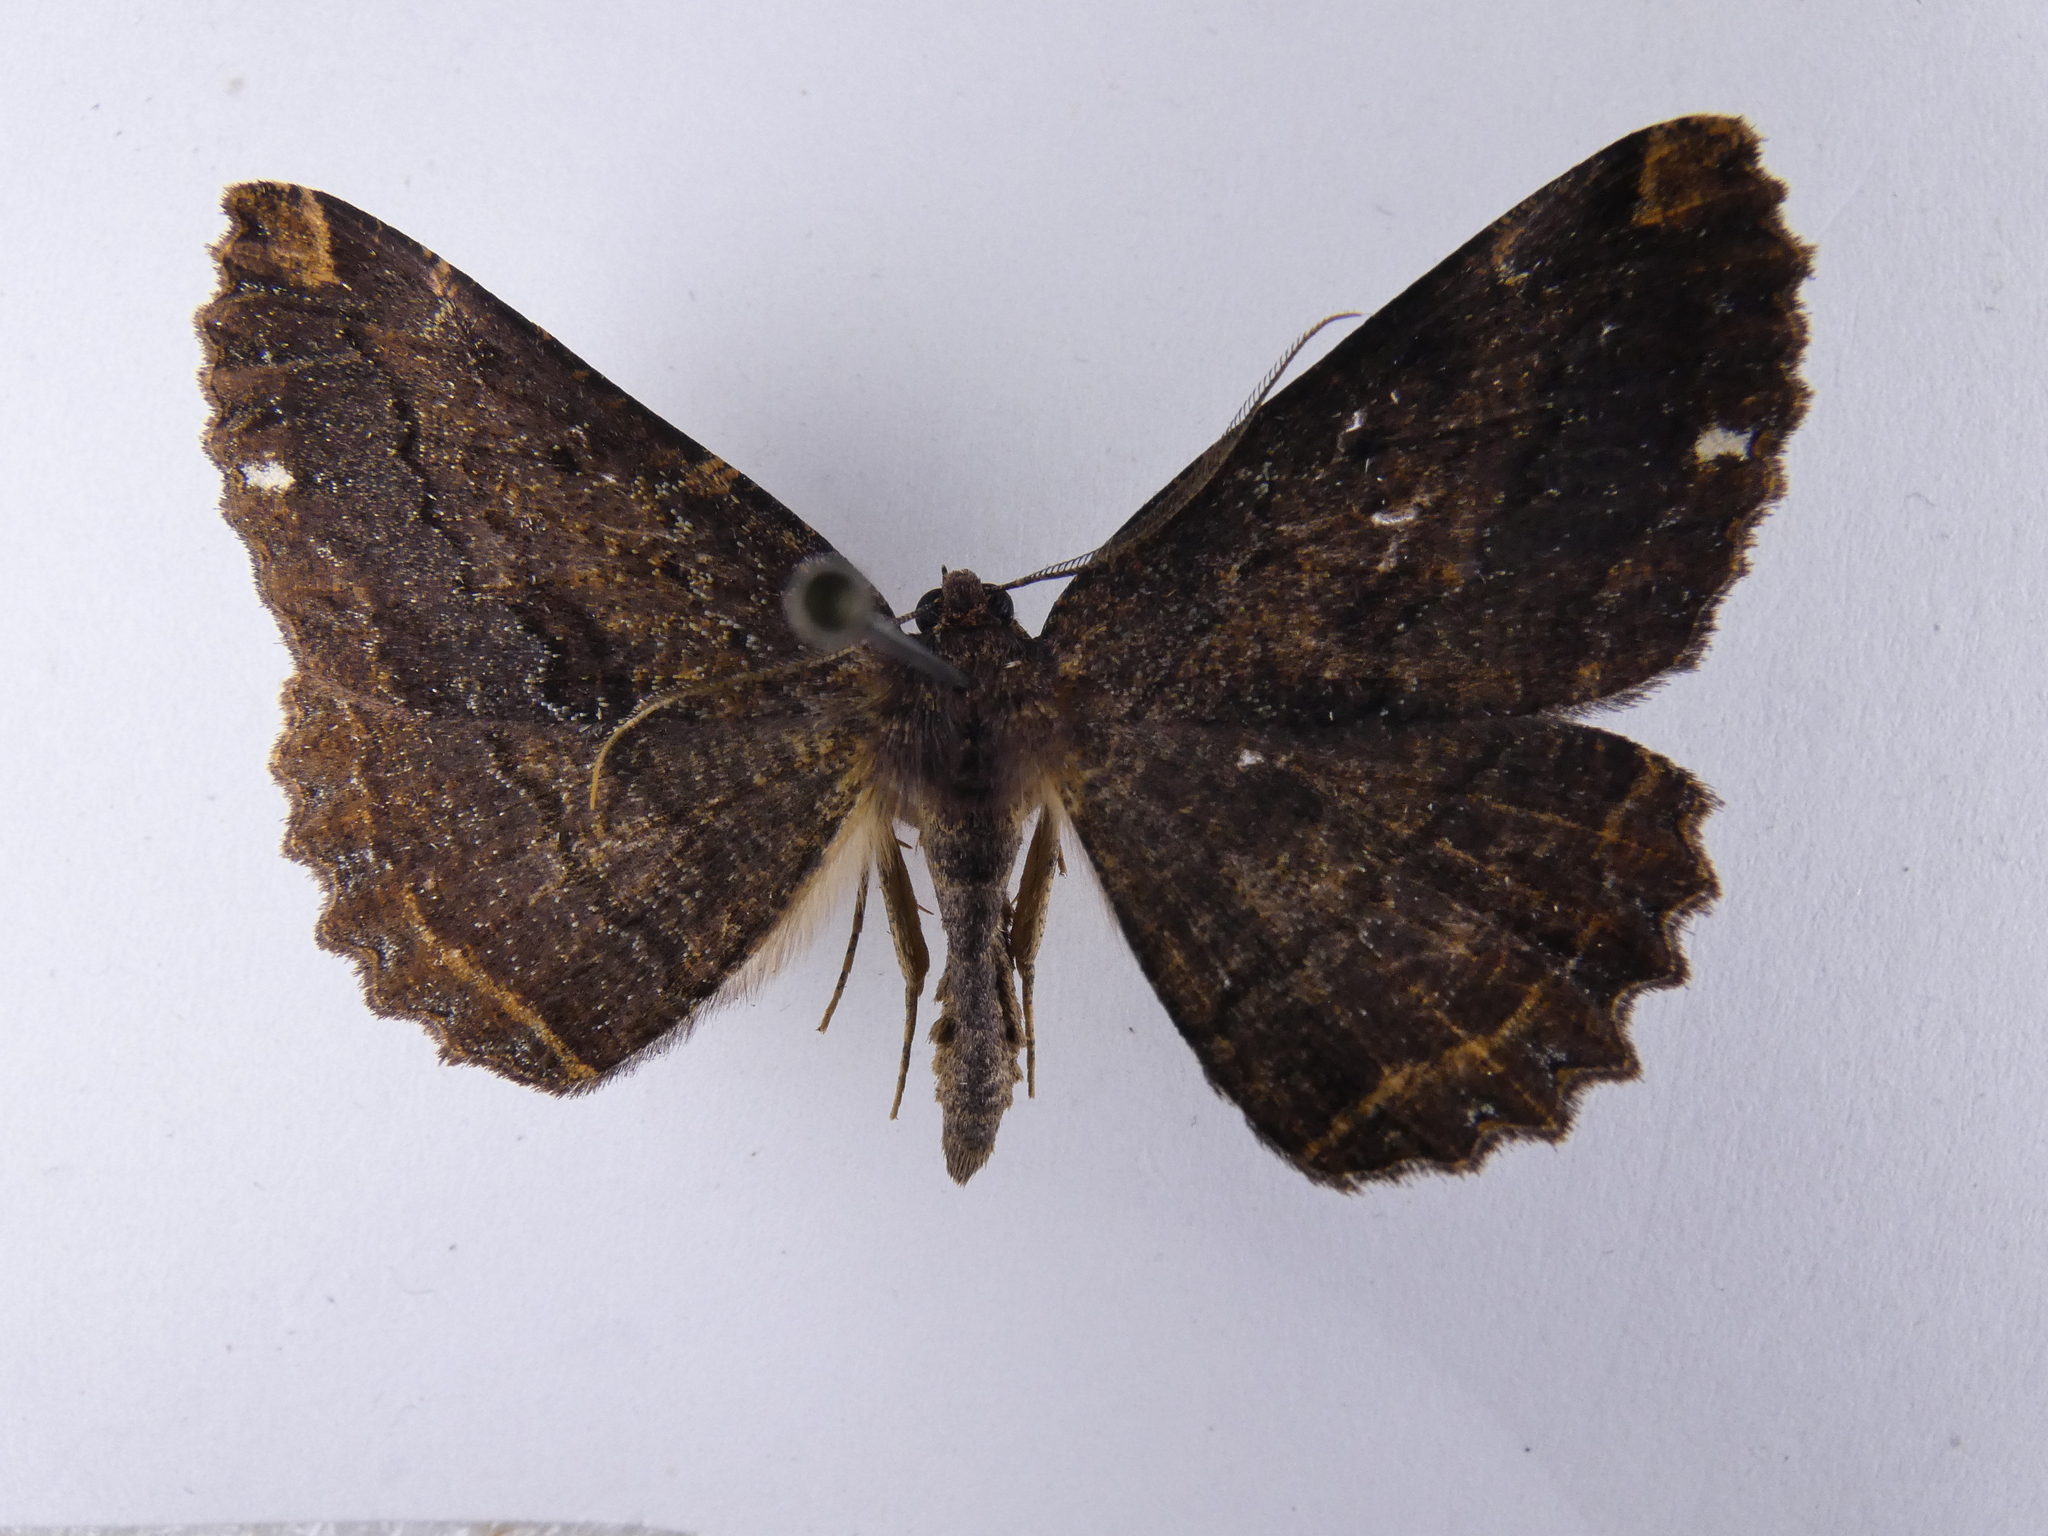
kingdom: Animalia
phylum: Arthropoda
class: Insecta
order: Lepidoptera
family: Geometridae
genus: Gellonia
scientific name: Gellonia dejectaria
